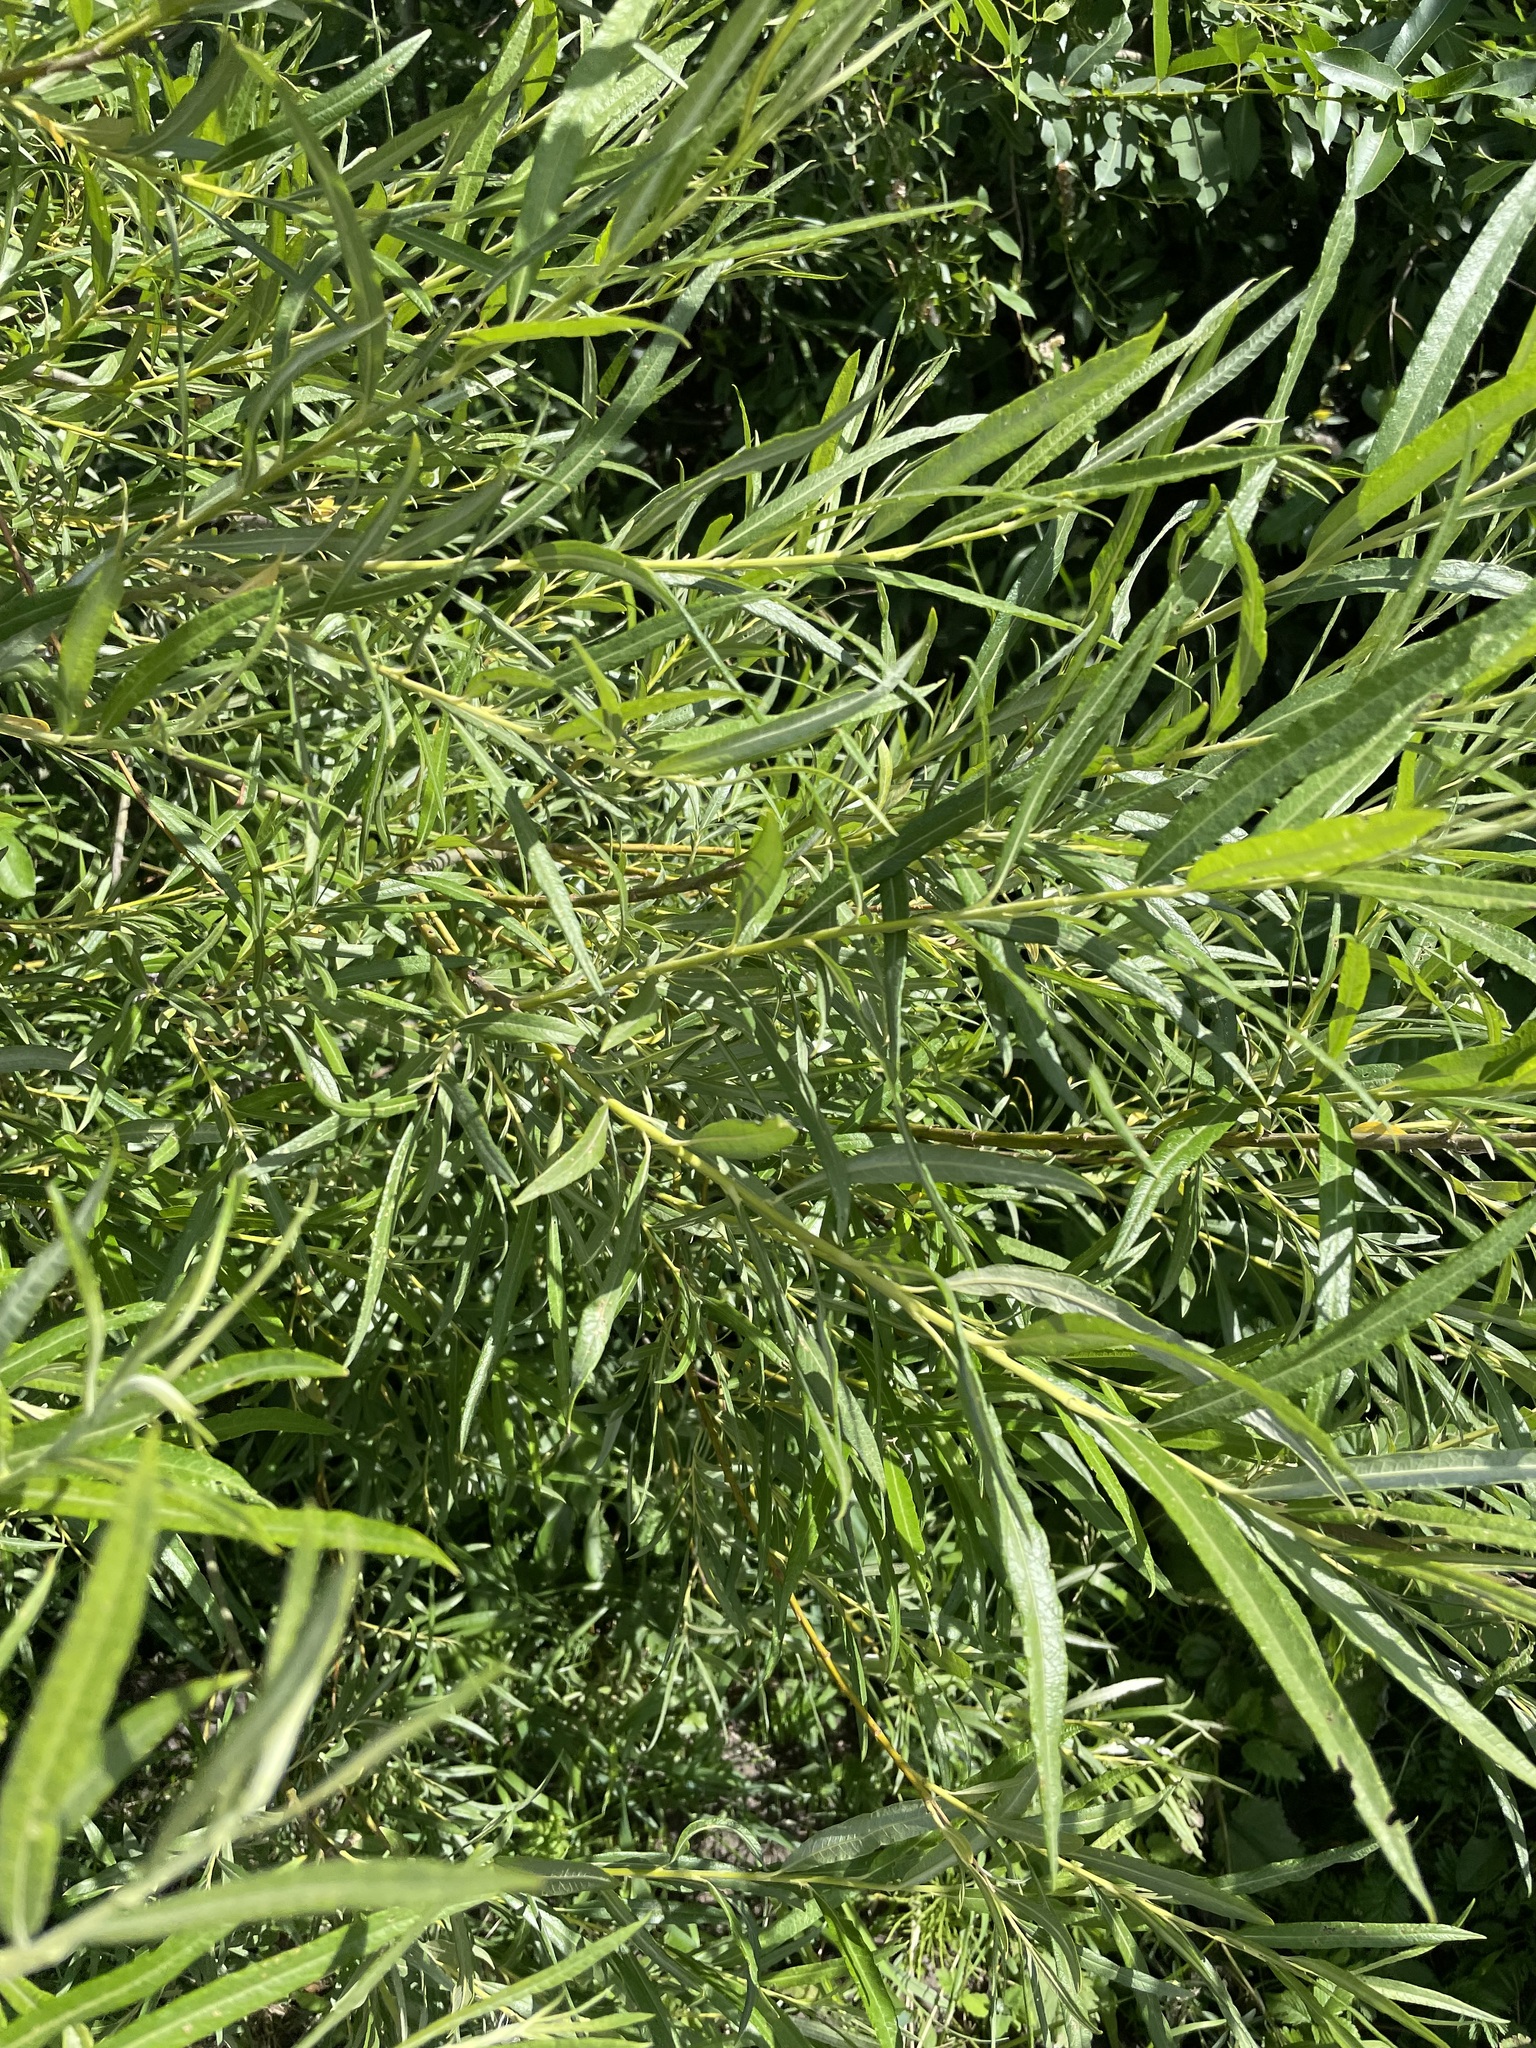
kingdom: Plantae
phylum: Tracheophyta
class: Magnoliopsida
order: Malpighiales
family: Salicaceae
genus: Salix
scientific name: Salix viminalis
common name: Osier
